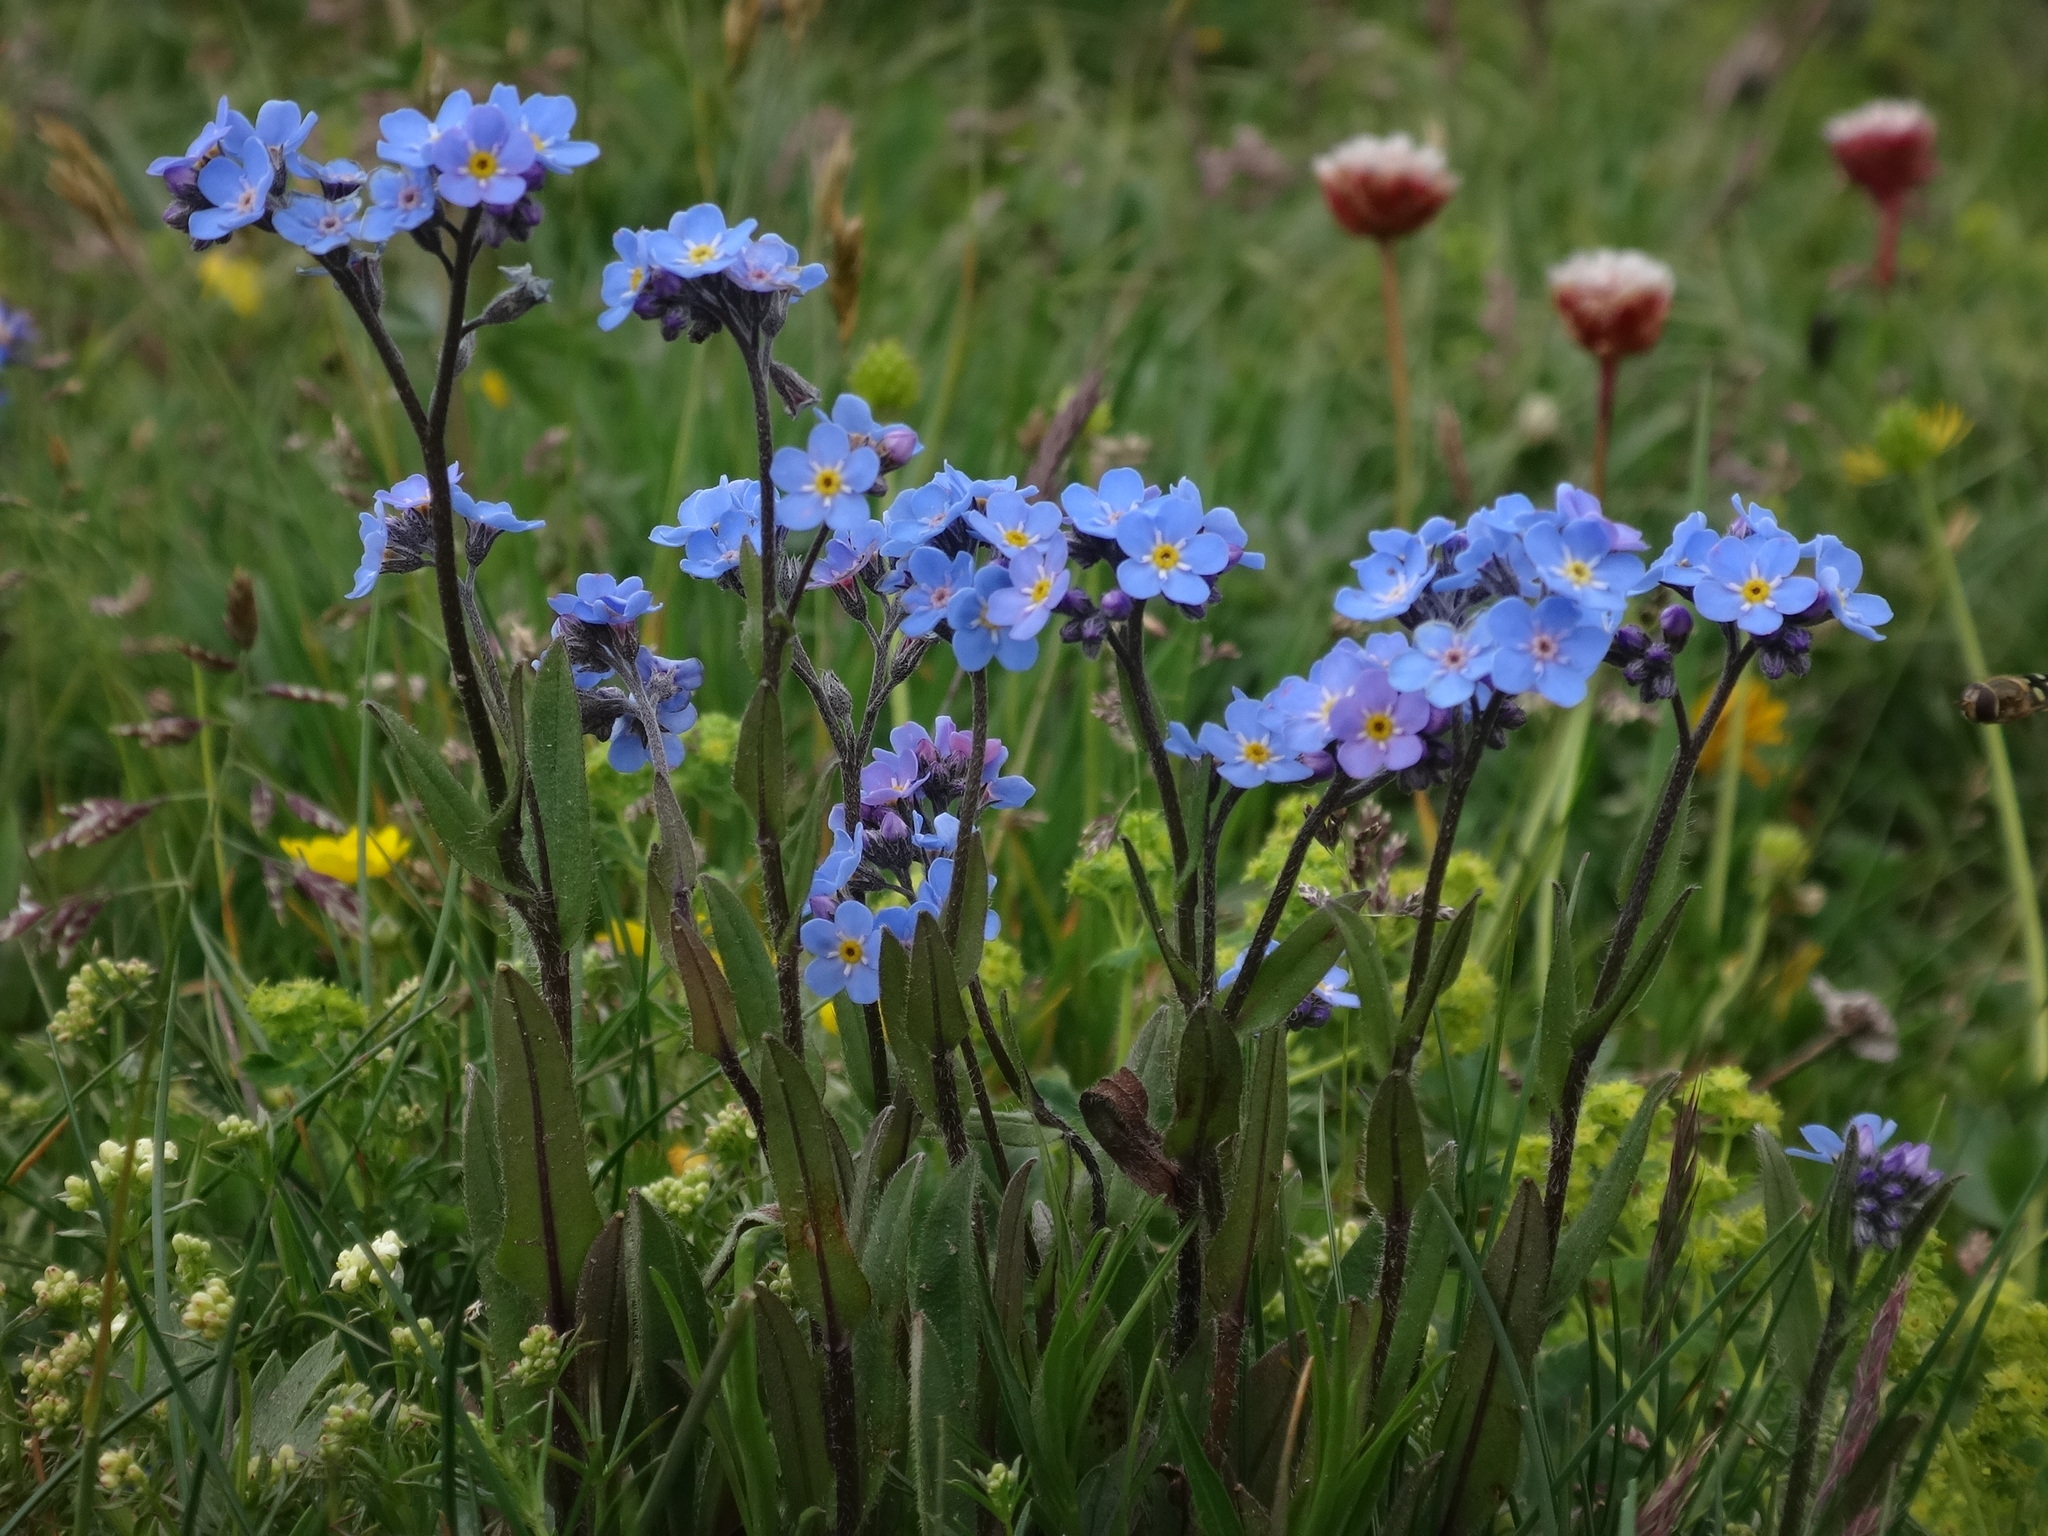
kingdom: Plantae
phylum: Tracheophyta
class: Magnoliopsida
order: Boraginales
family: Boraginaceae
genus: Myosotis
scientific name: Myosotis alpestris
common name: Alpine forget-me-not
